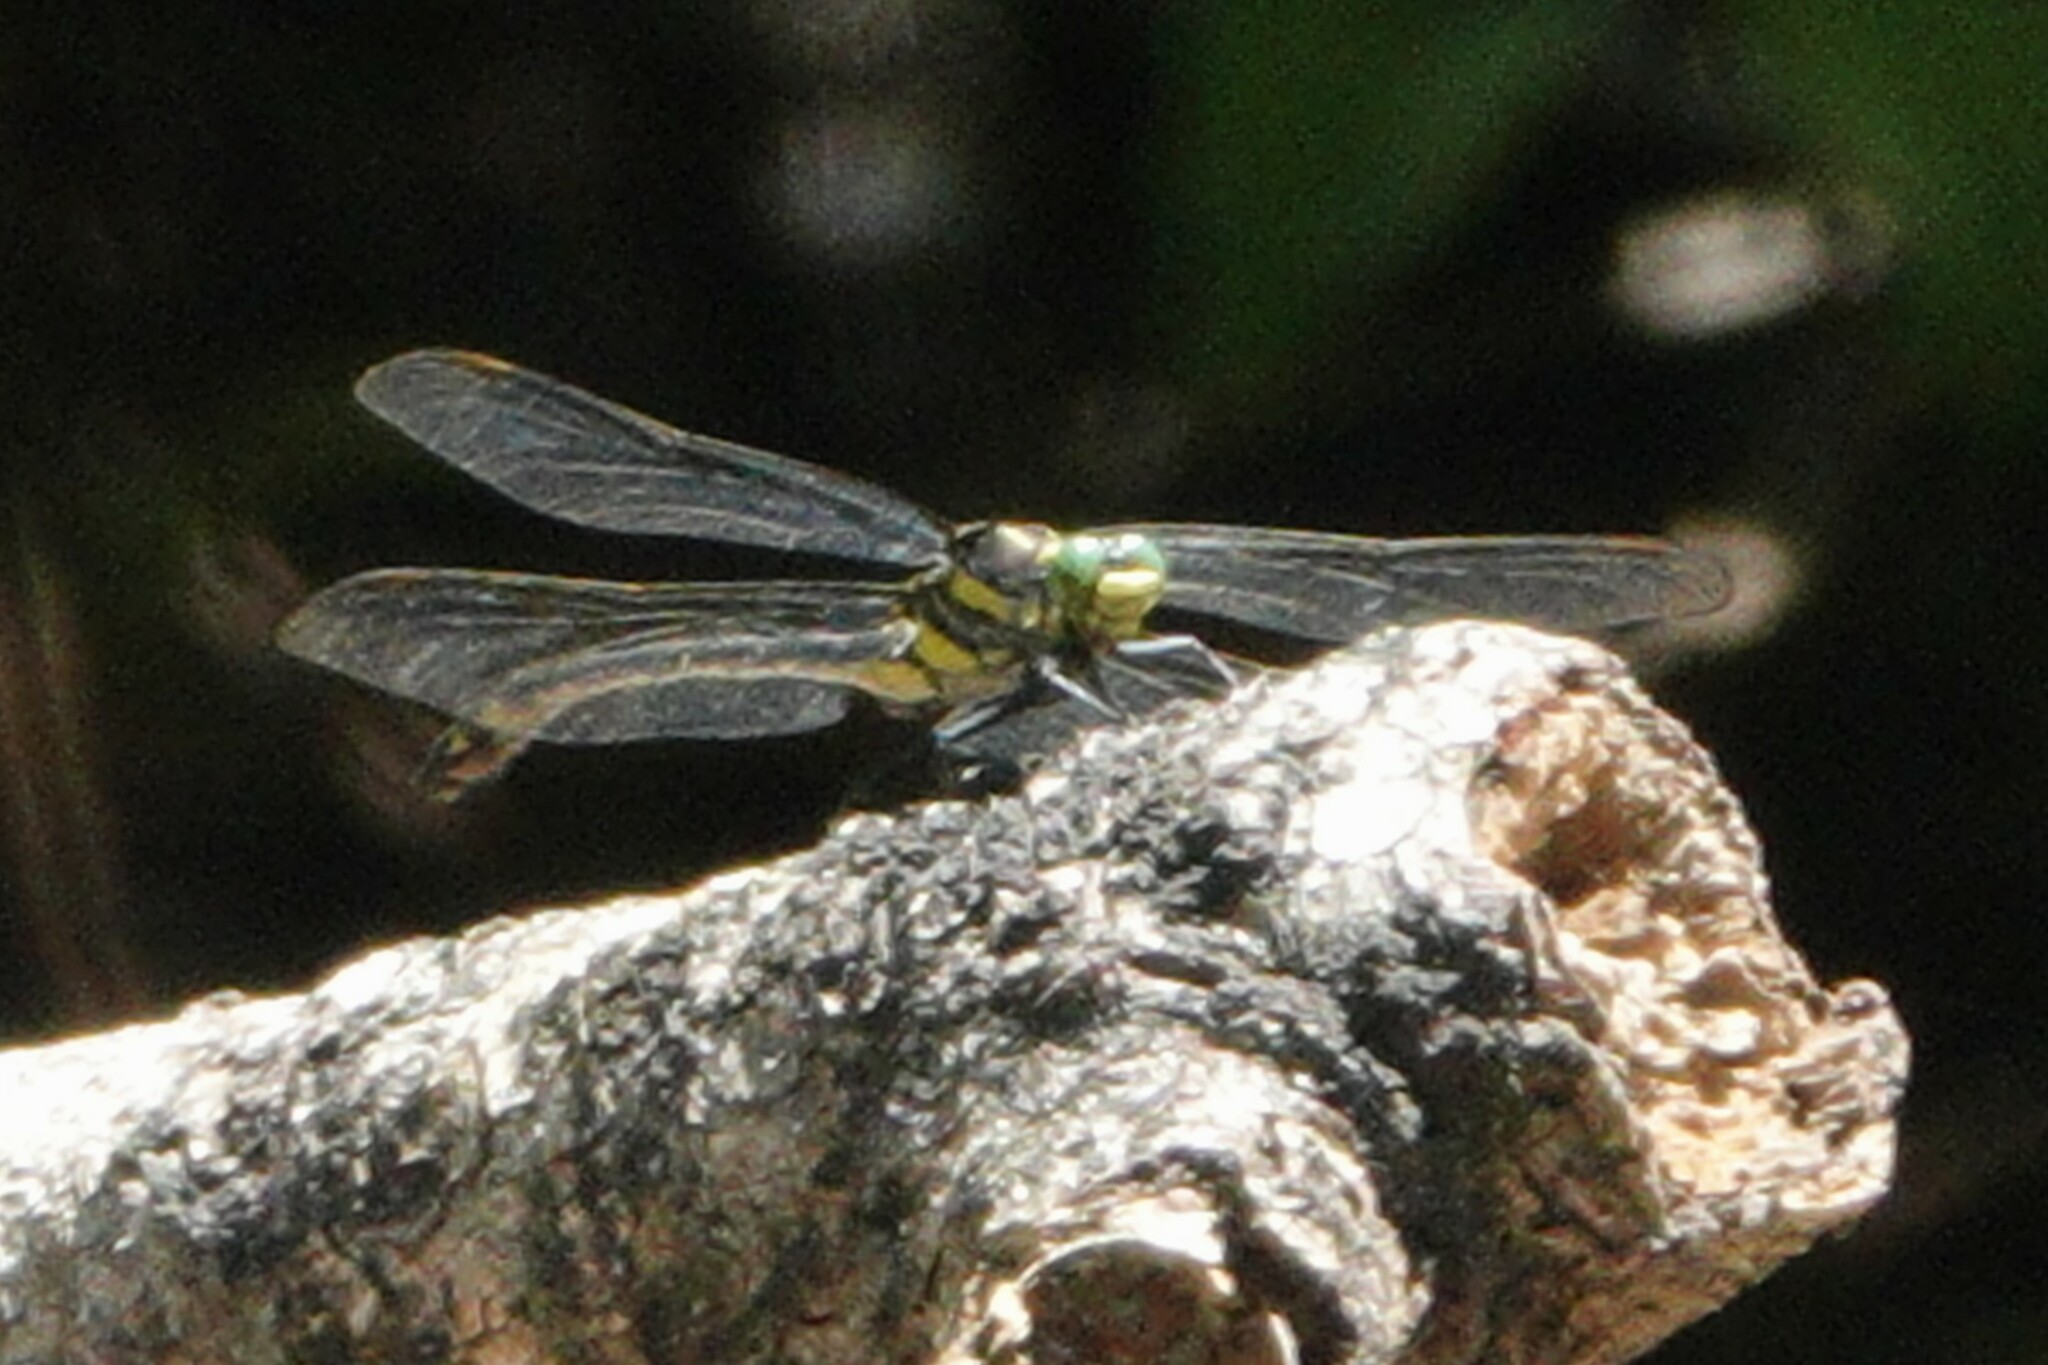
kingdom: Animalia
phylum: Arthropoda
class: Insecta
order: Odonata
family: Gomphidae
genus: Hagenius
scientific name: Hagenius brevistylus
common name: Dragonhunter
